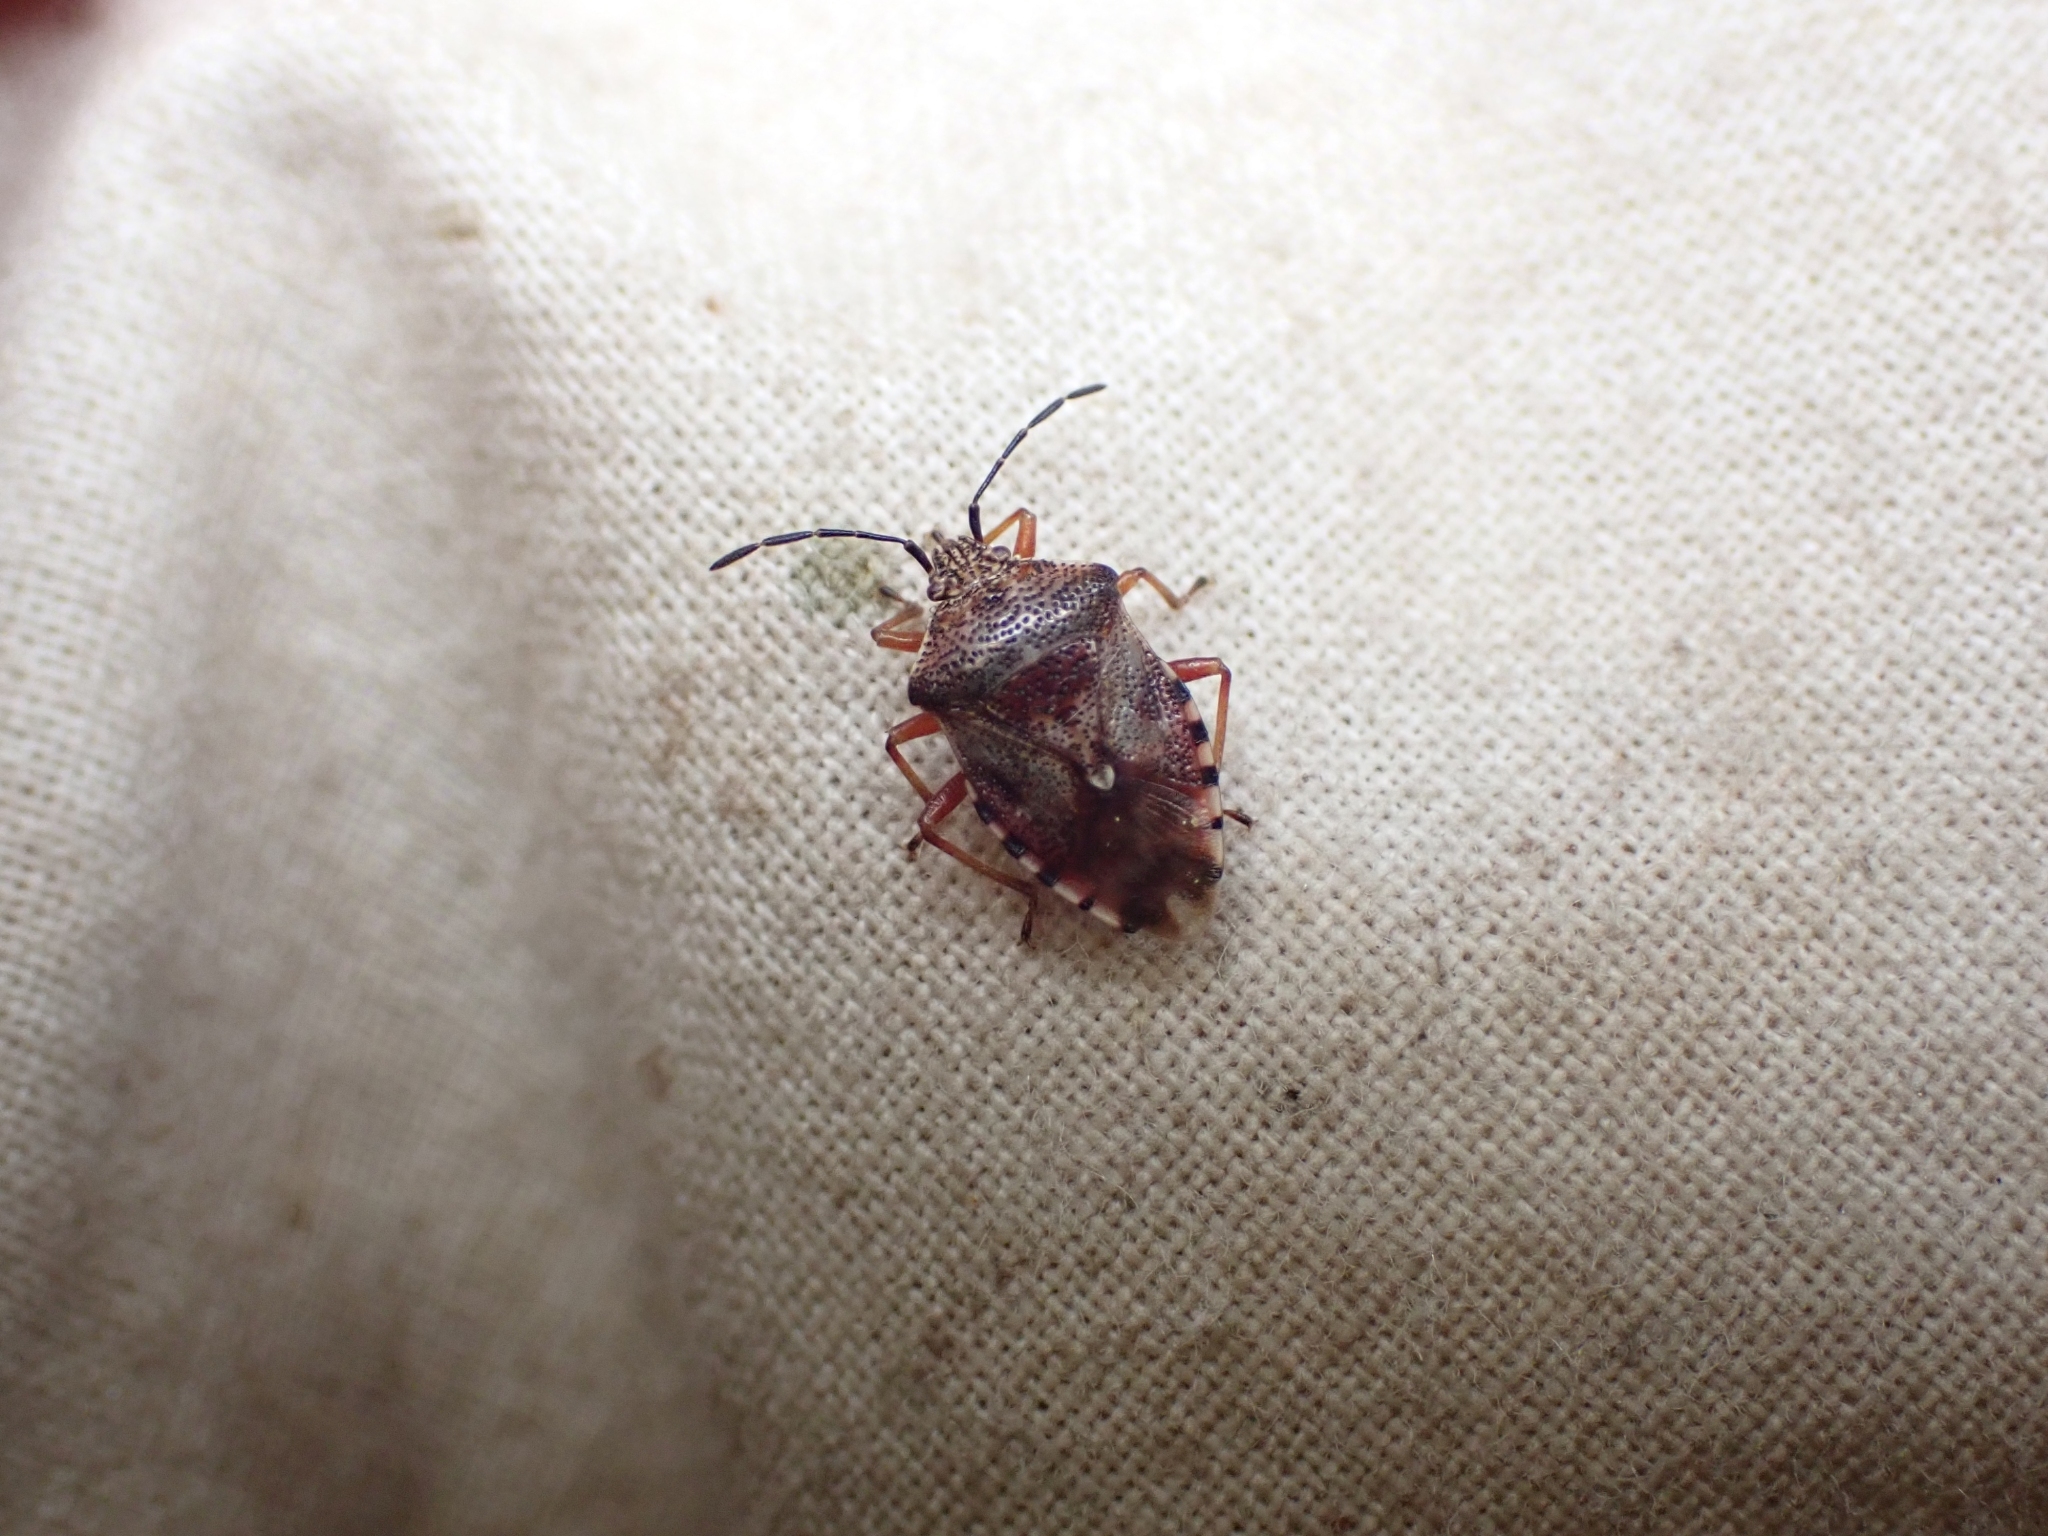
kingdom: Animalia
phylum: Arthropoda
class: Insecta
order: Hemiptera
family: Acanthosomatidae
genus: Elasmucha
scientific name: Elasmucha lateralis
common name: Shield bug
